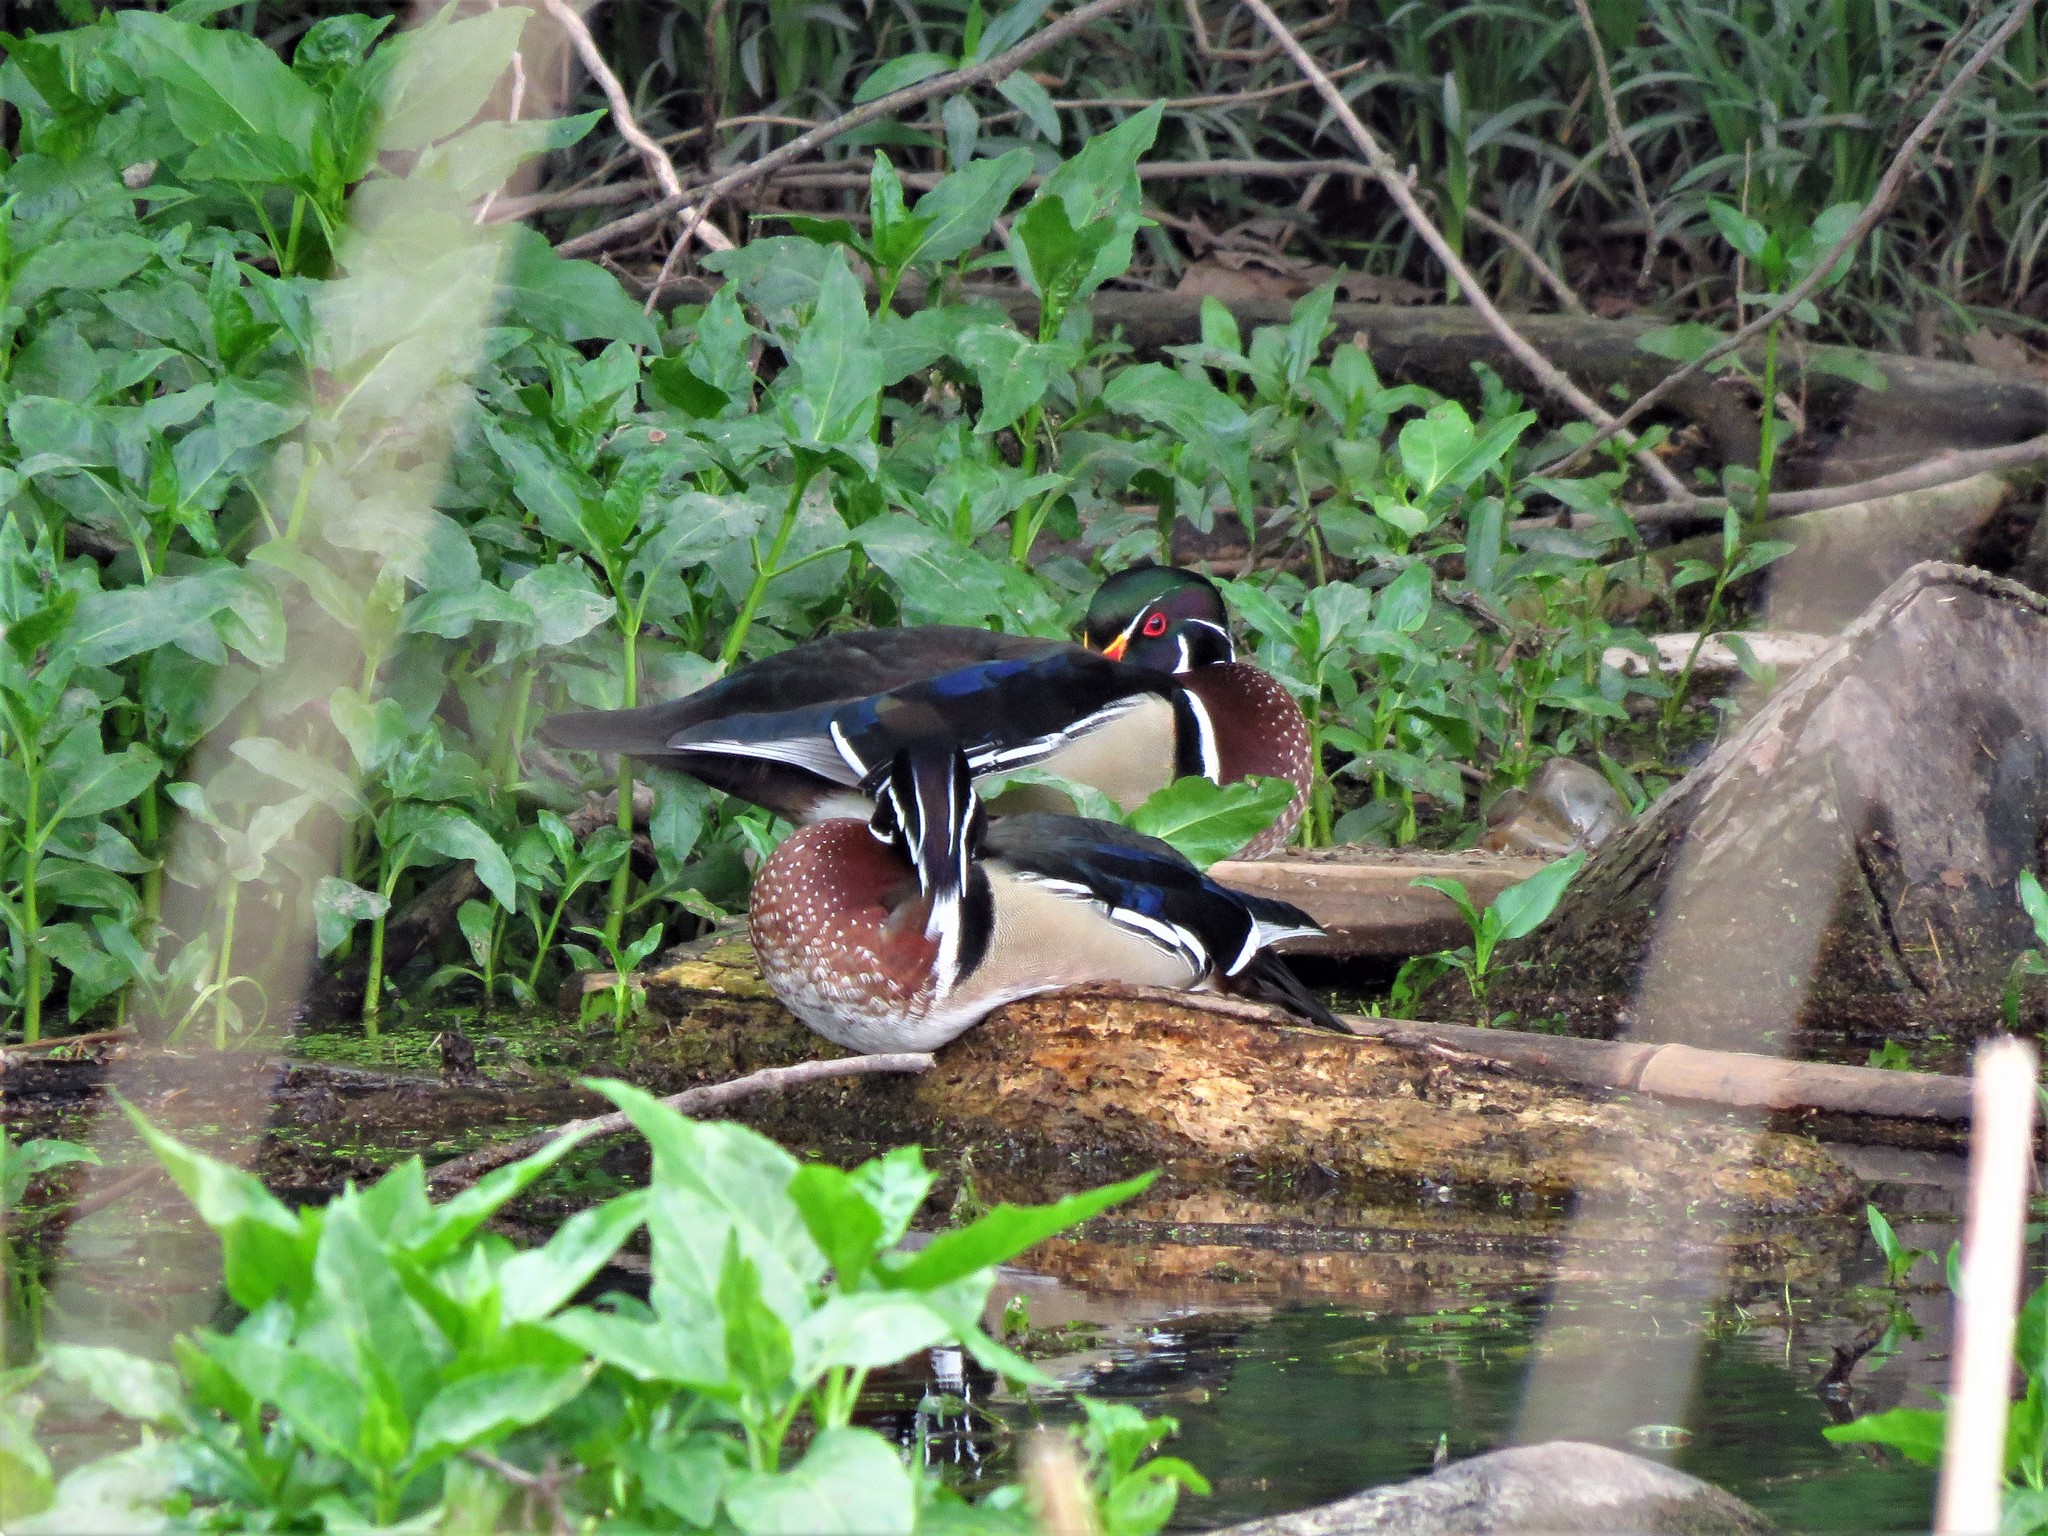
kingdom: Animalia
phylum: Chordata
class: Aves
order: Anseriformes
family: Anatidae
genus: Aix
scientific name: Aix sponsa
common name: Wood duck
